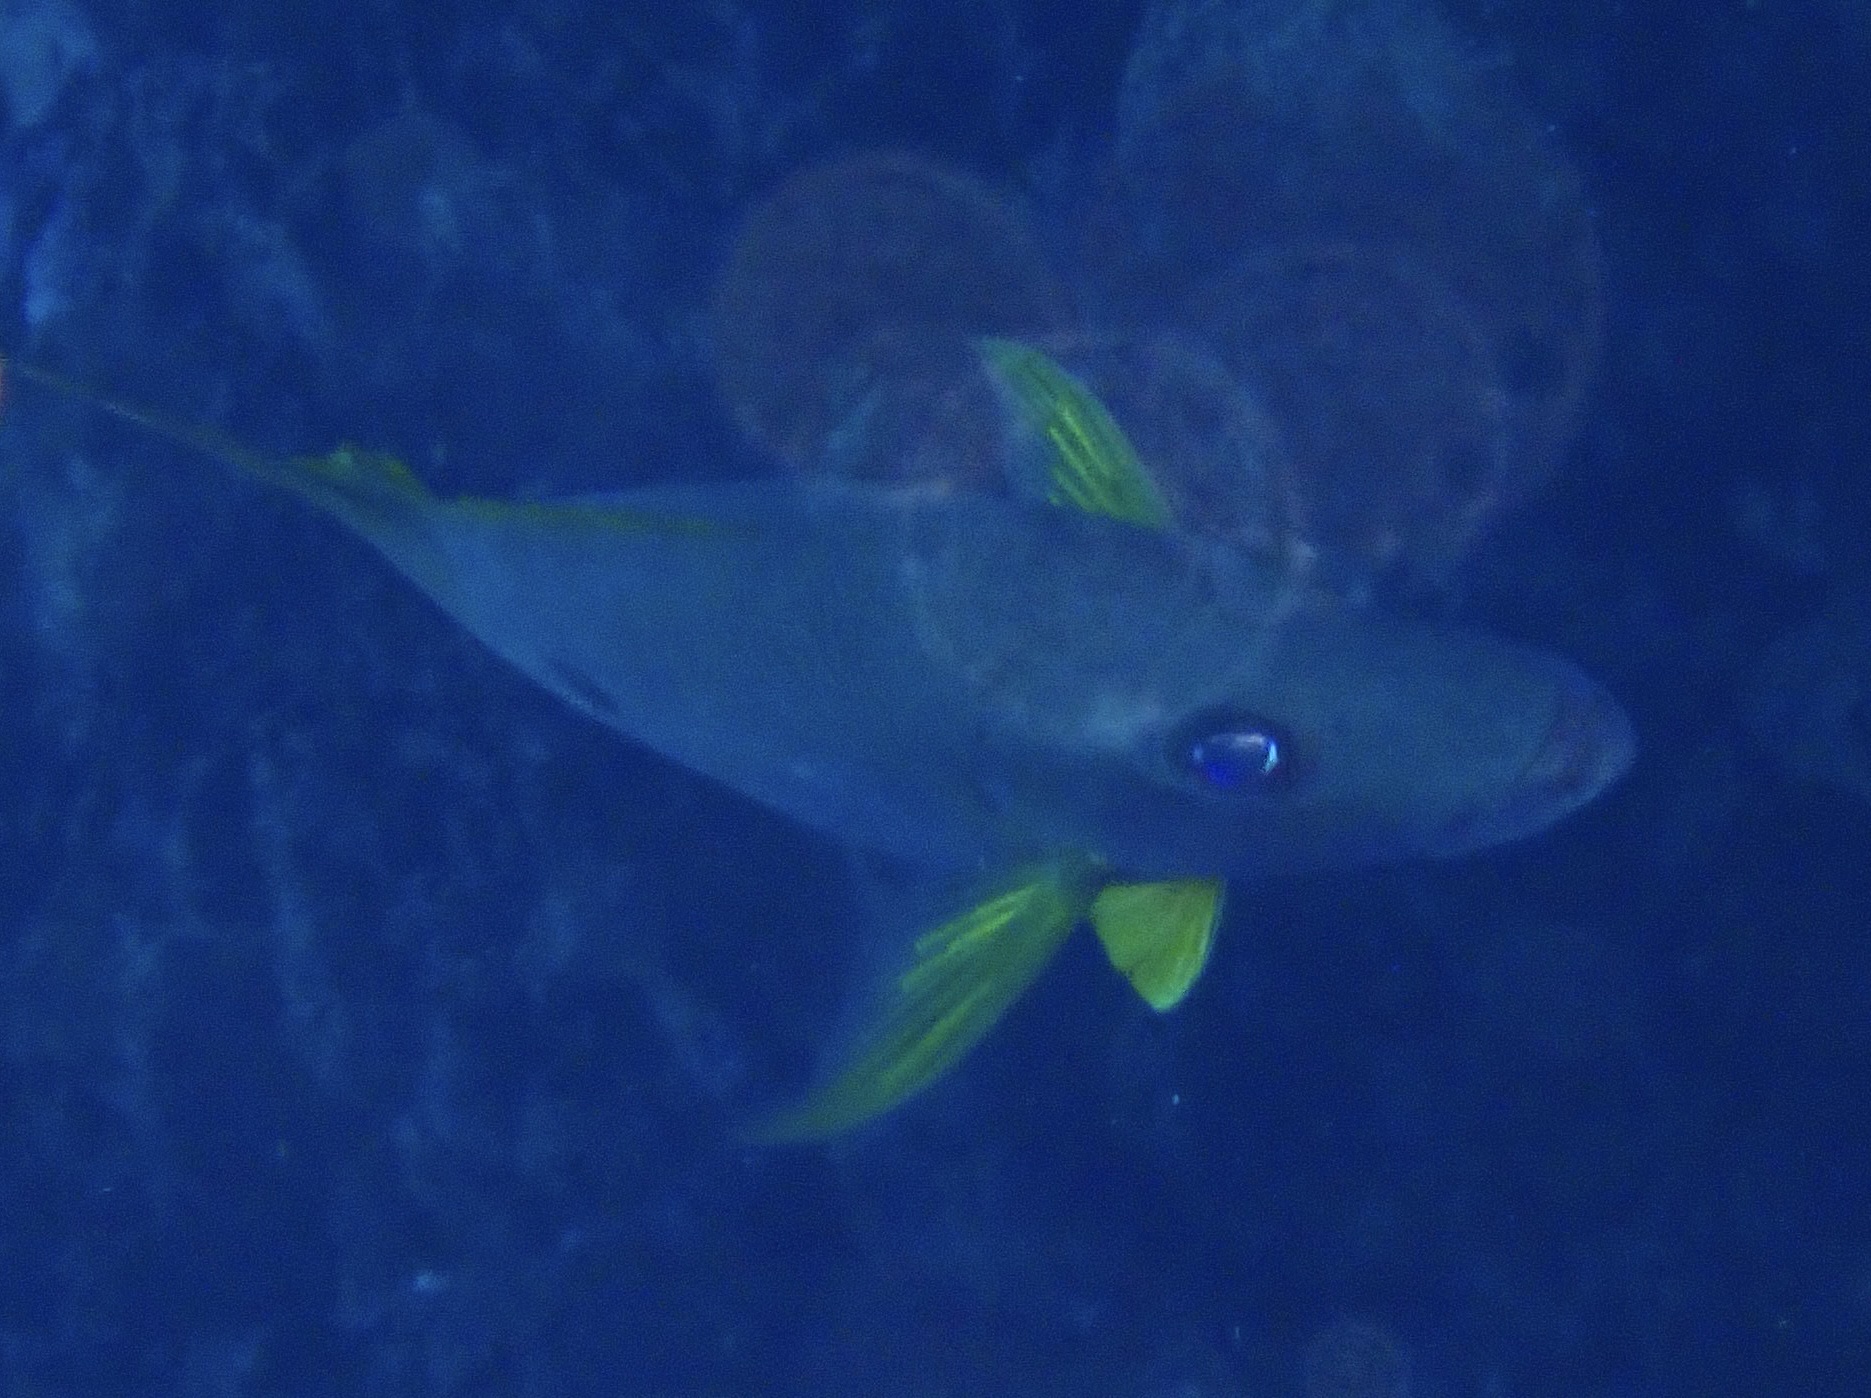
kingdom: Animalia
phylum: Chordata
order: Perciformes
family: Lutjanidae
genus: Lutjanus
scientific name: Lutjanus monostigma
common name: Onespot snapper
